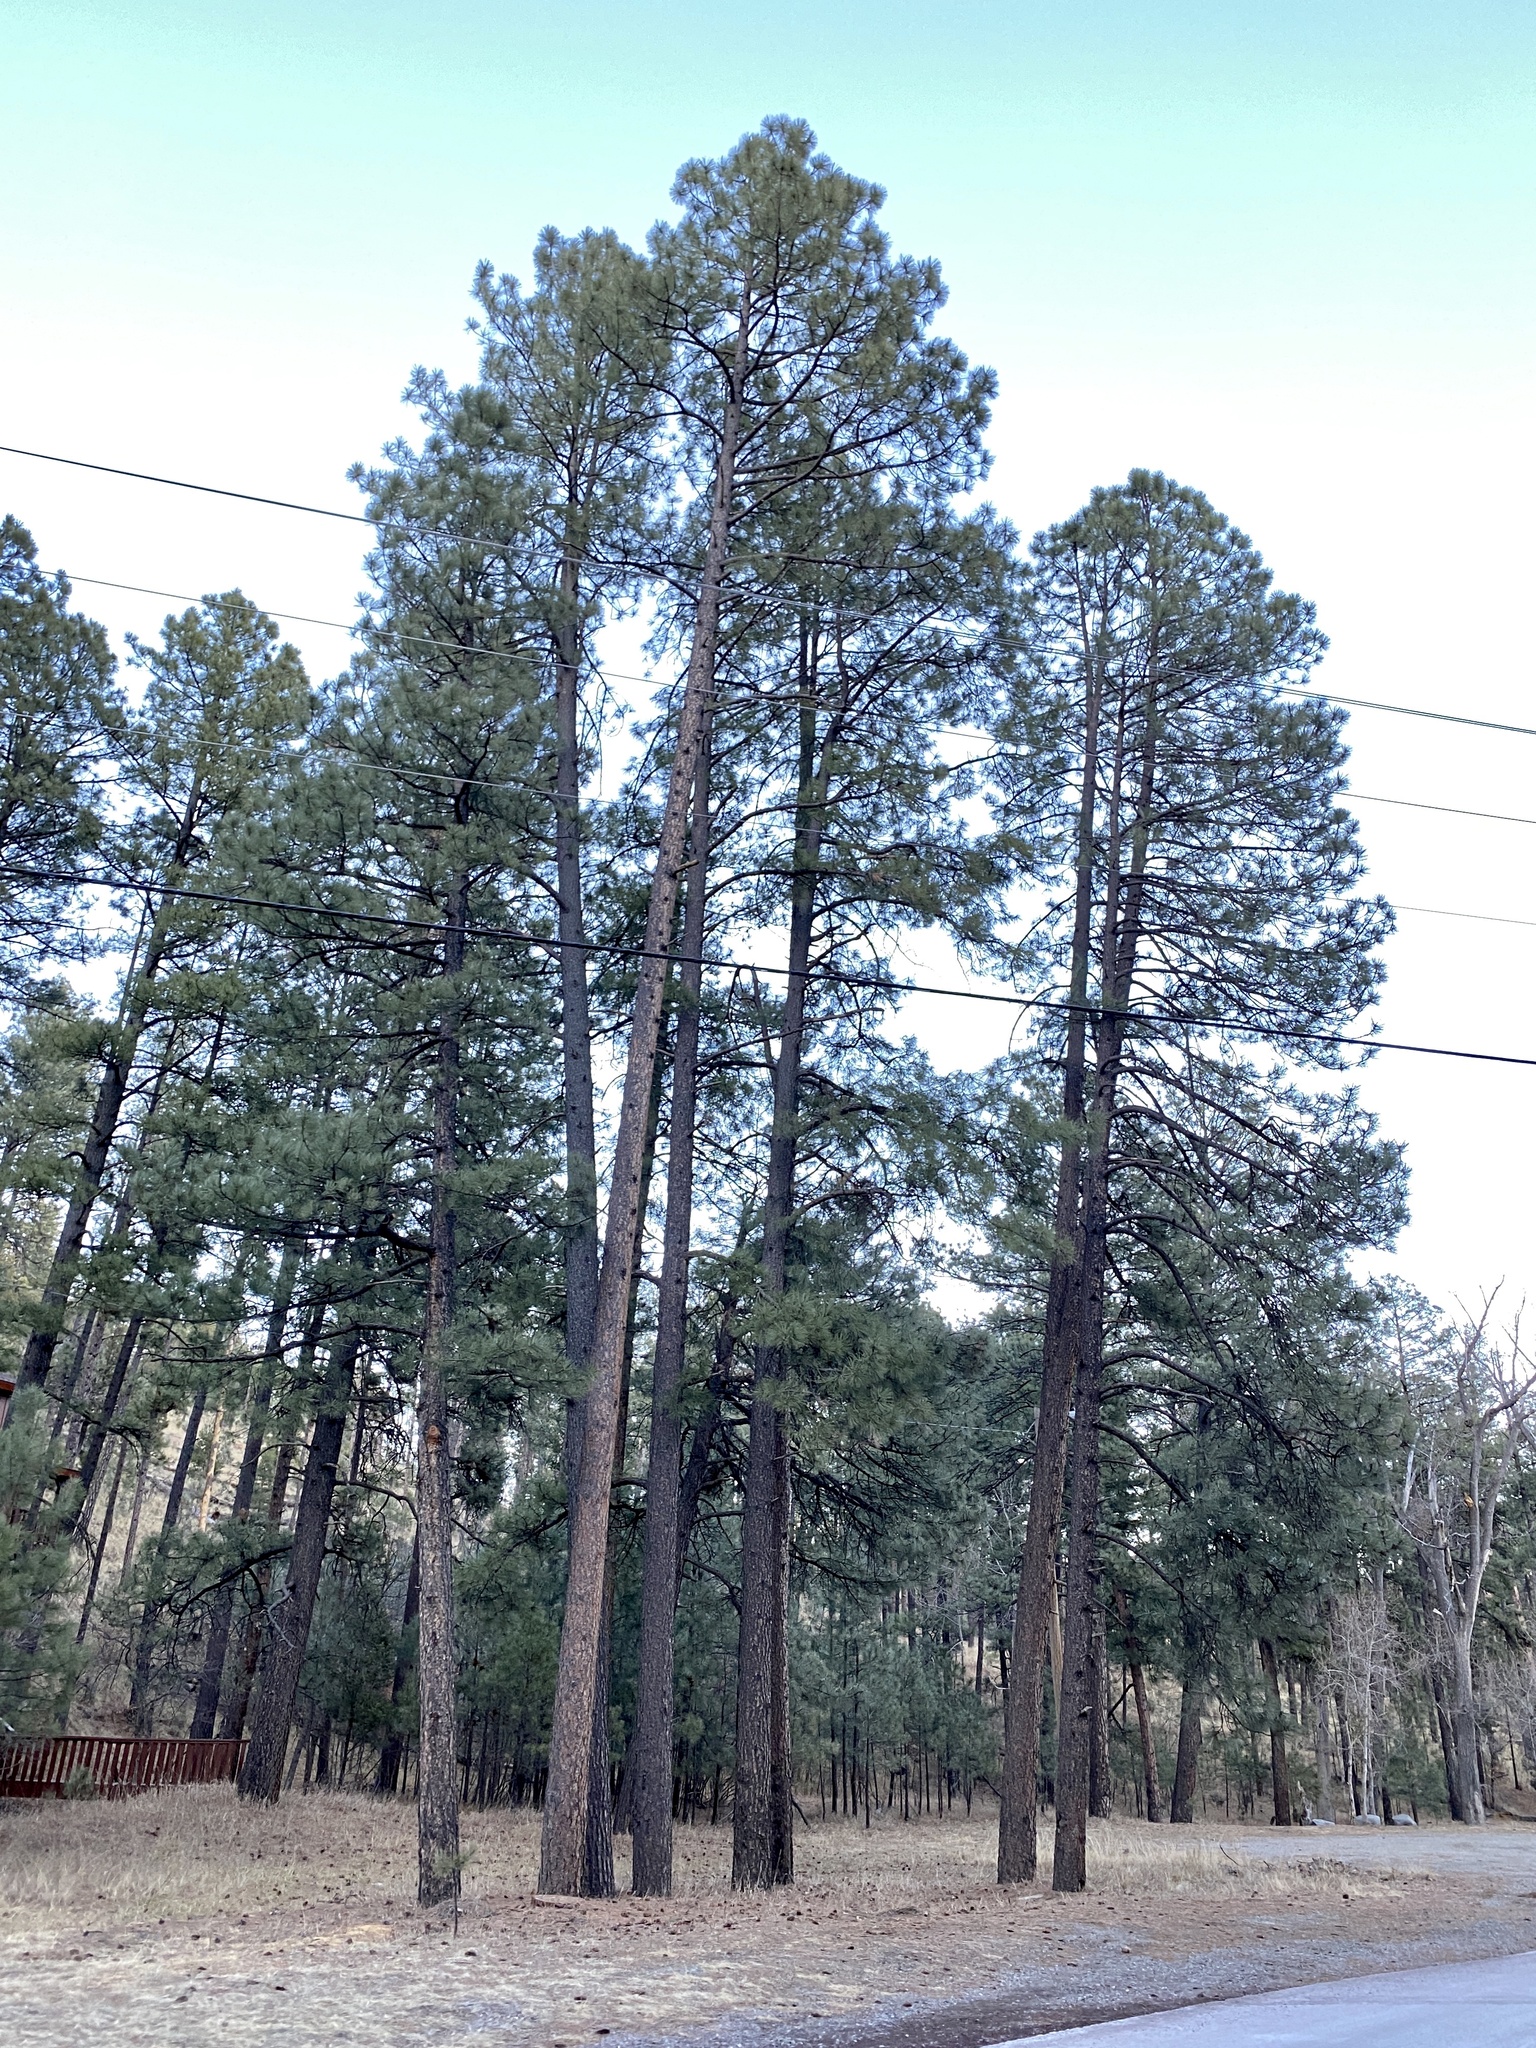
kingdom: Plantae
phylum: Tracheophyta
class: Pinopsida
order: Pinales
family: Pinaceae
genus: Pinus
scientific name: Pinus ponderosa
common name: Western yellow-pine
